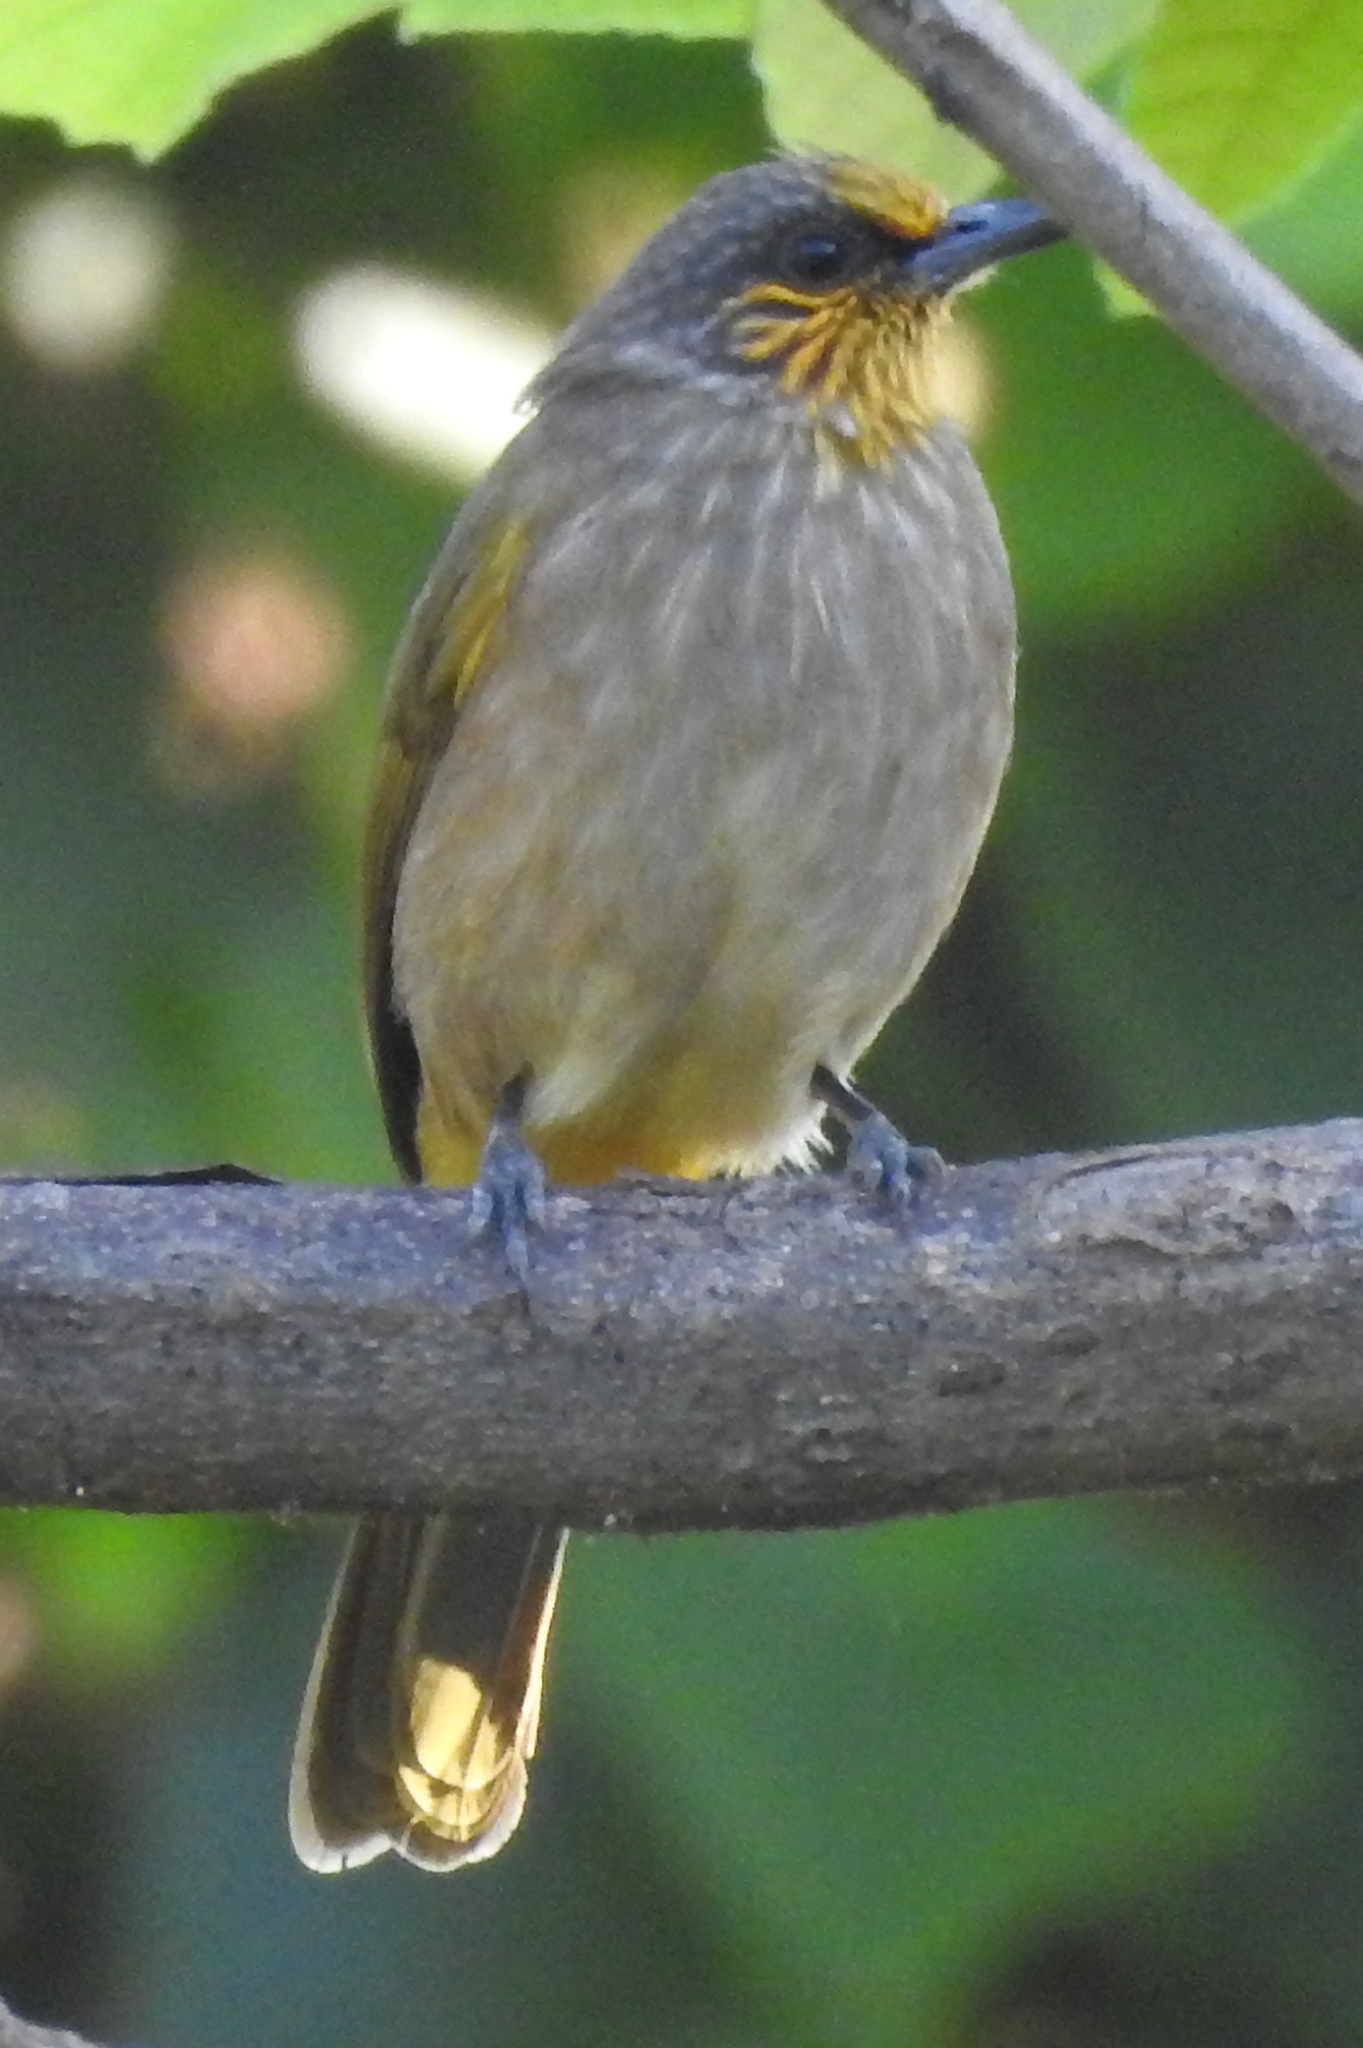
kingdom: Animalia
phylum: Chordata
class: Aves
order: Passeriformes
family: Pycnonotidae
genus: Pycnonotus
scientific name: Pycnonotus finlaysoni
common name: Stripe-throated bulbul
